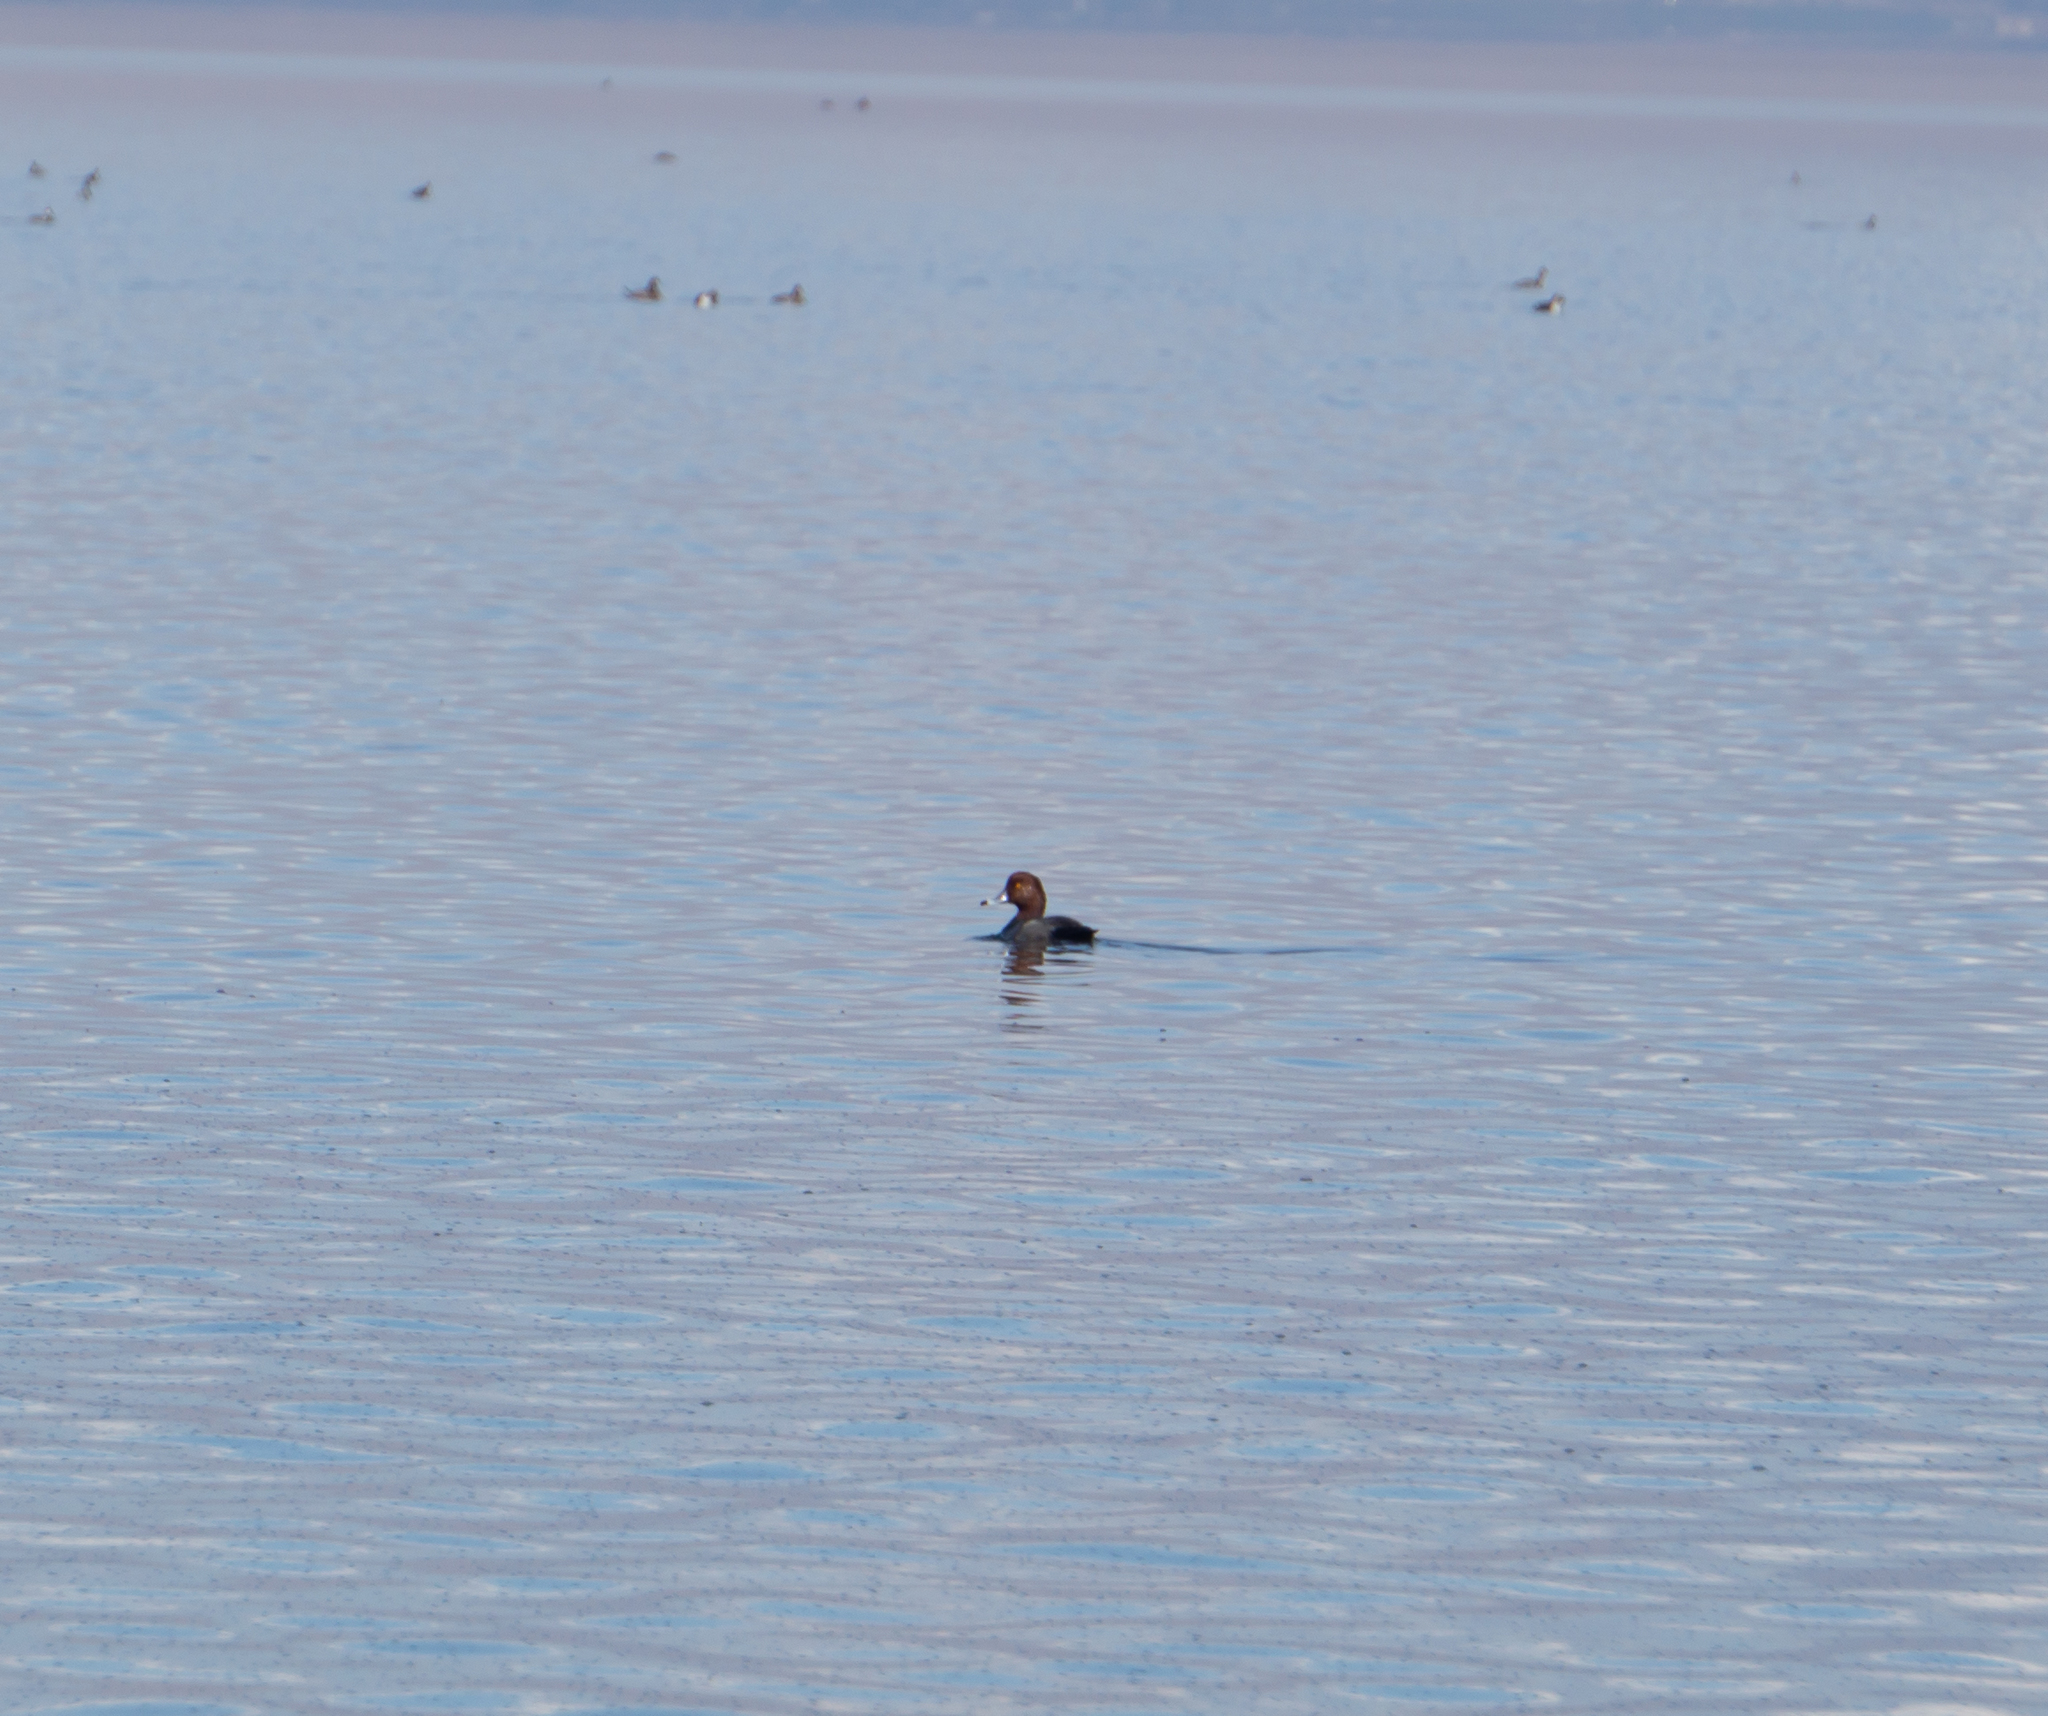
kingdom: Animalia
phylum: Chordata
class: Aves
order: Anseriformes
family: Anatidae
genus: Aythya
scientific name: Aythya americana
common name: Redhead
